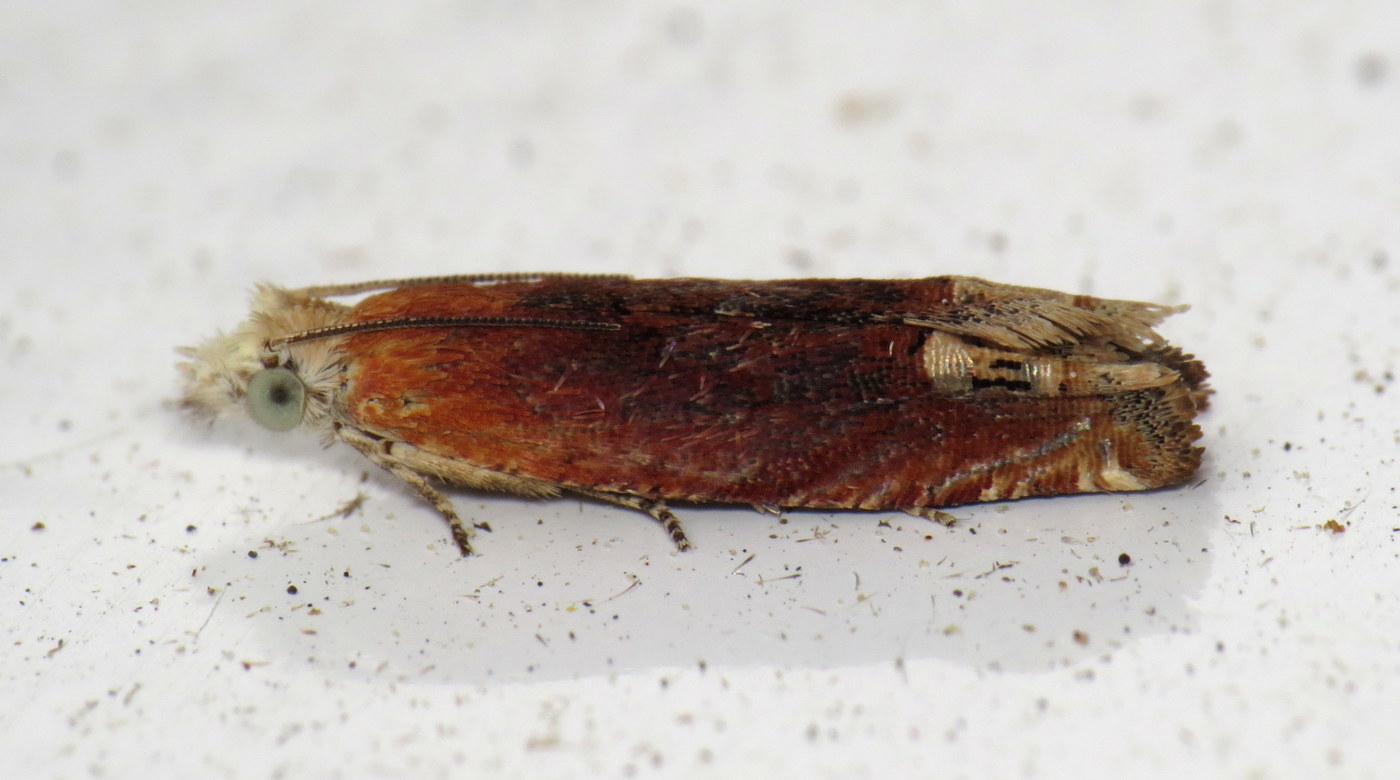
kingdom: Animalia
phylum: Arthropoda
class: Insecta
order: Lepidoptera
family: Tortricidae
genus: Eucosma
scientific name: Eucosma raracana
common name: Reddish eucosma moth
